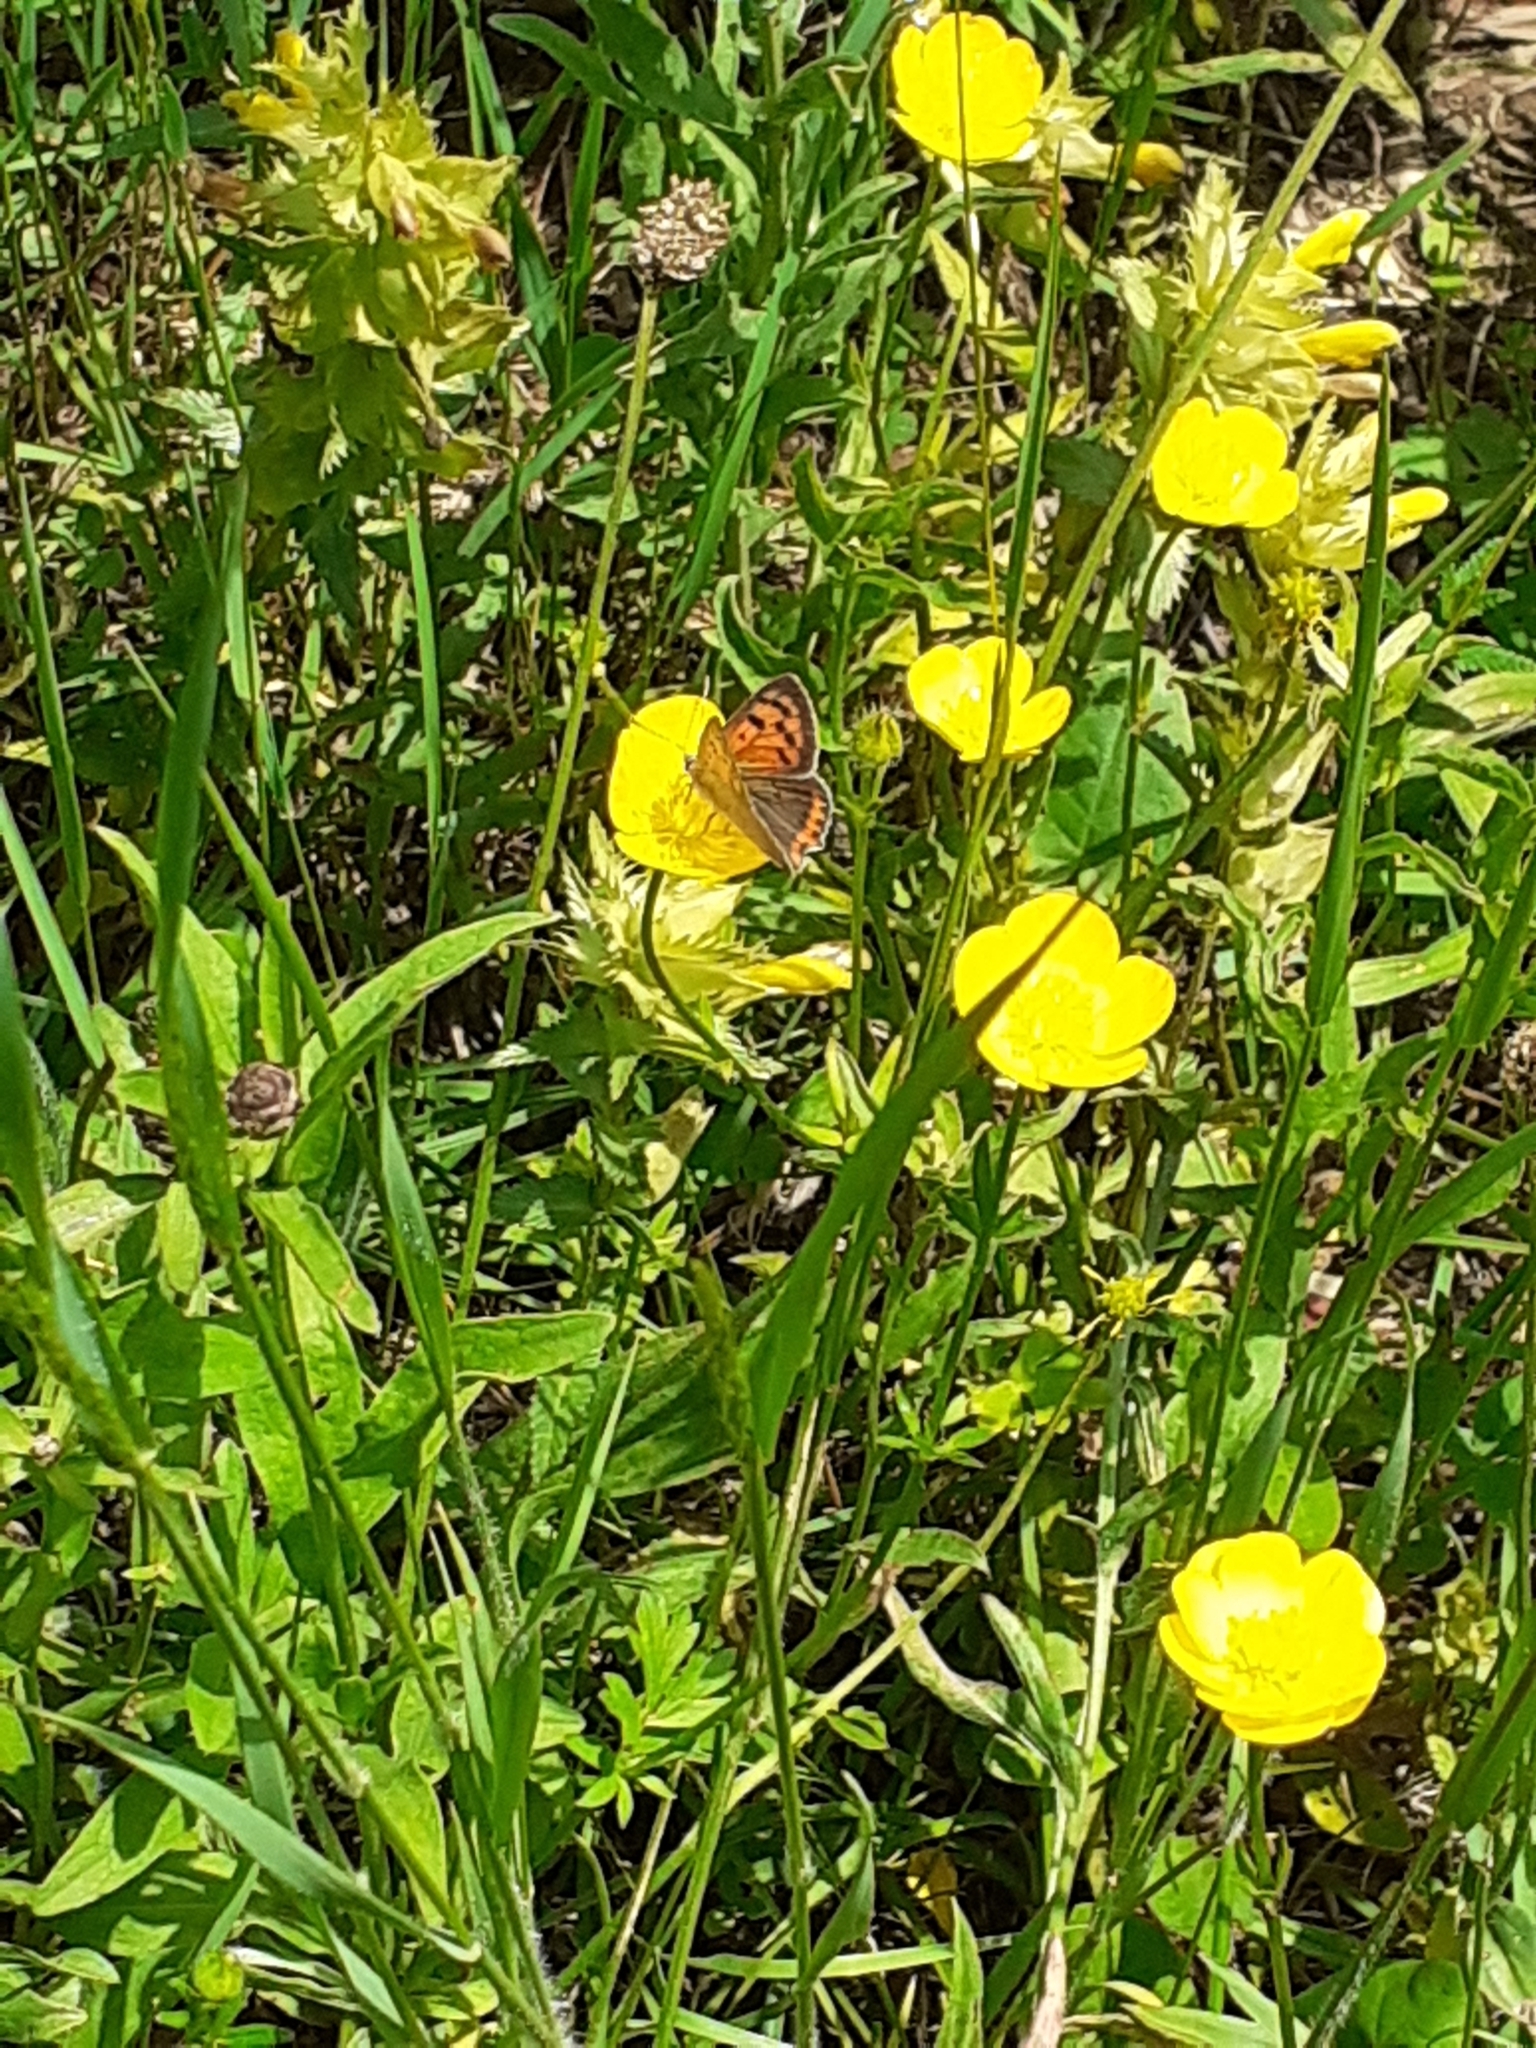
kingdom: Animalia
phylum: Arthropoda
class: Insecta
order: Lepidoptera
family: Lycaenidae
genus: Lycaena
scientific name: Lycaena phlaeas
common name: Small copper
